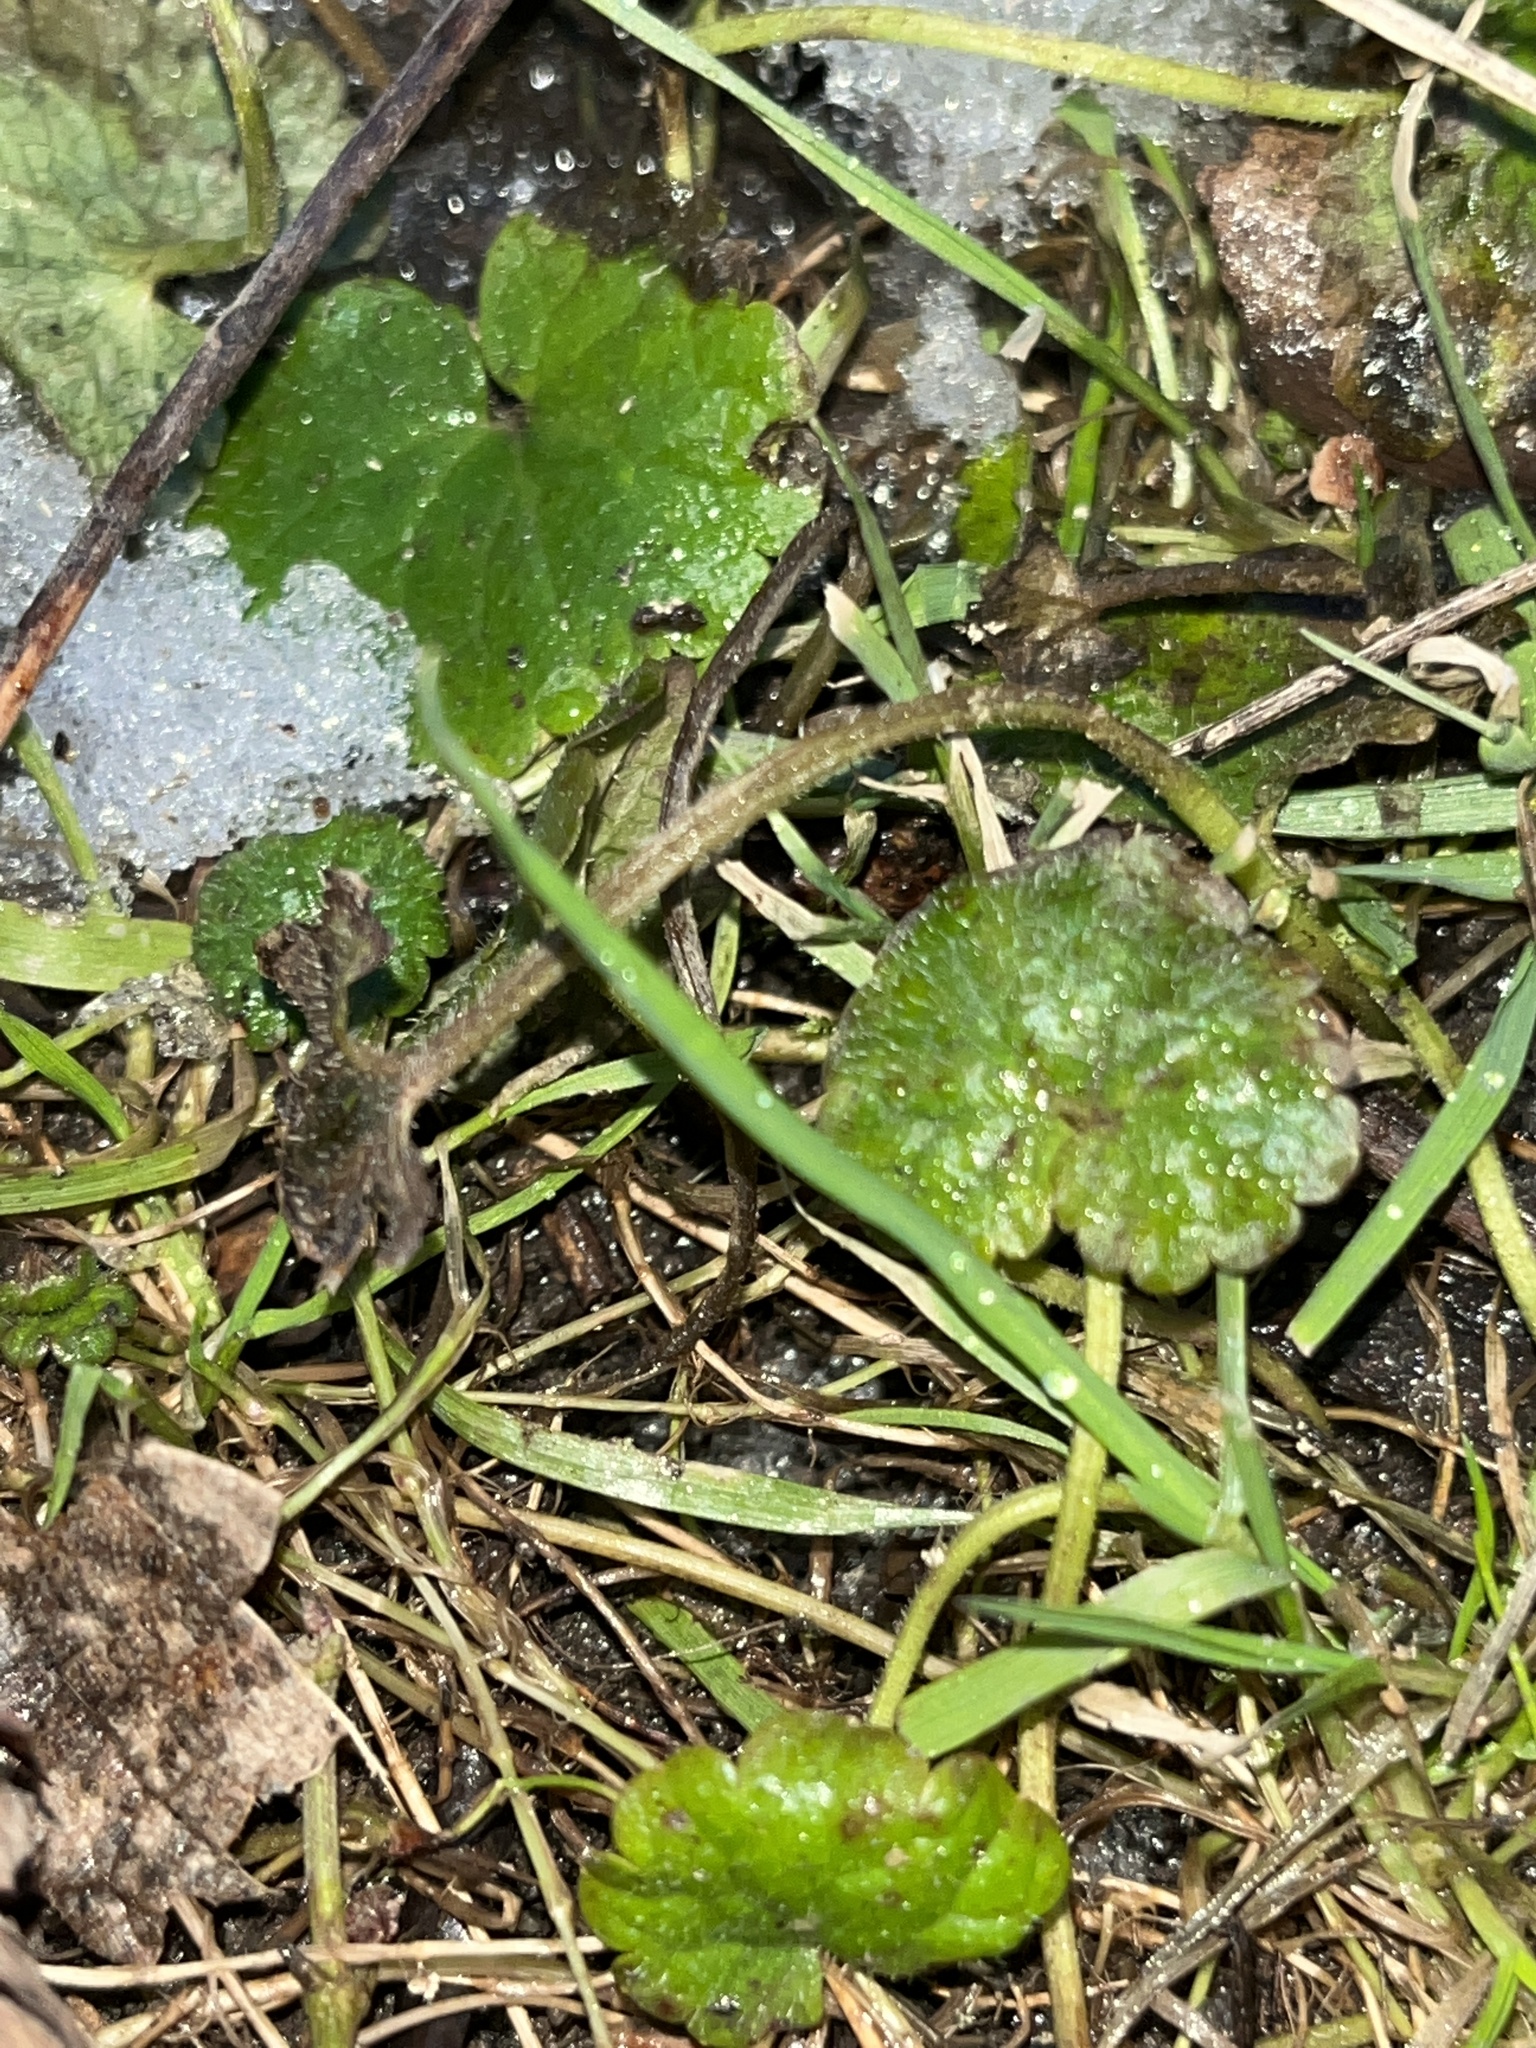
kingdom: Plantae
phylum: Tracheophyta
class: Magnoliopsida
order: Lamiales
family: Lamiaceae
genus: Glechoma
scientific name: Glechoma hederacea
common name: Ground ivy
